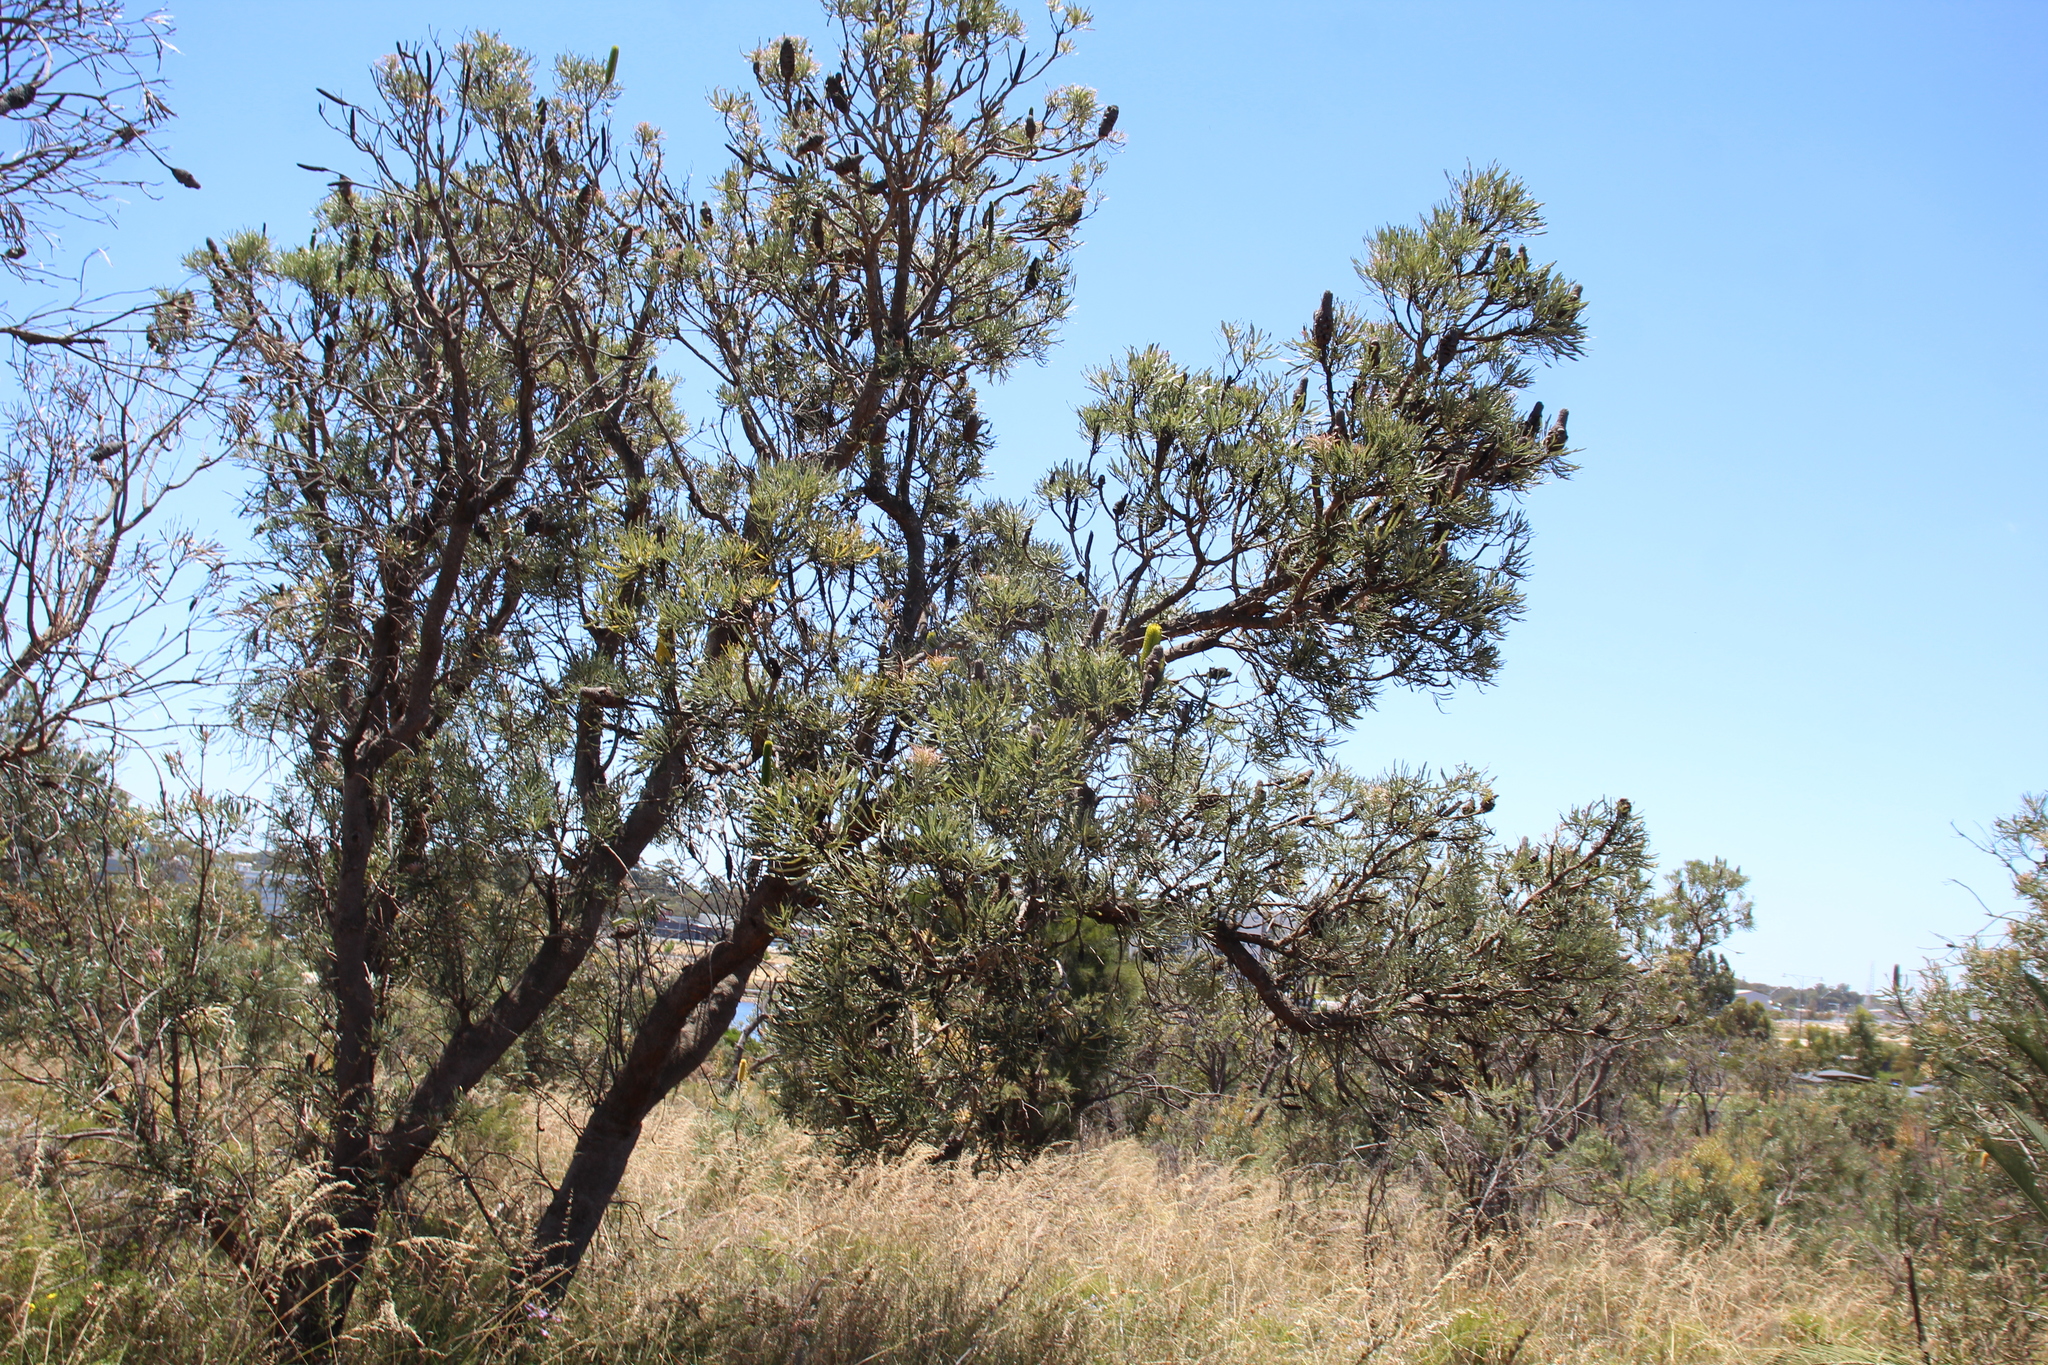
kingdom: Plantae
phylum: Tracheophyta
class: Magnoliopsida
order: Proteales
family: Proteaceae
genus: Banksia
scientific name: Banksia attenuata
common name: Coast banksia
